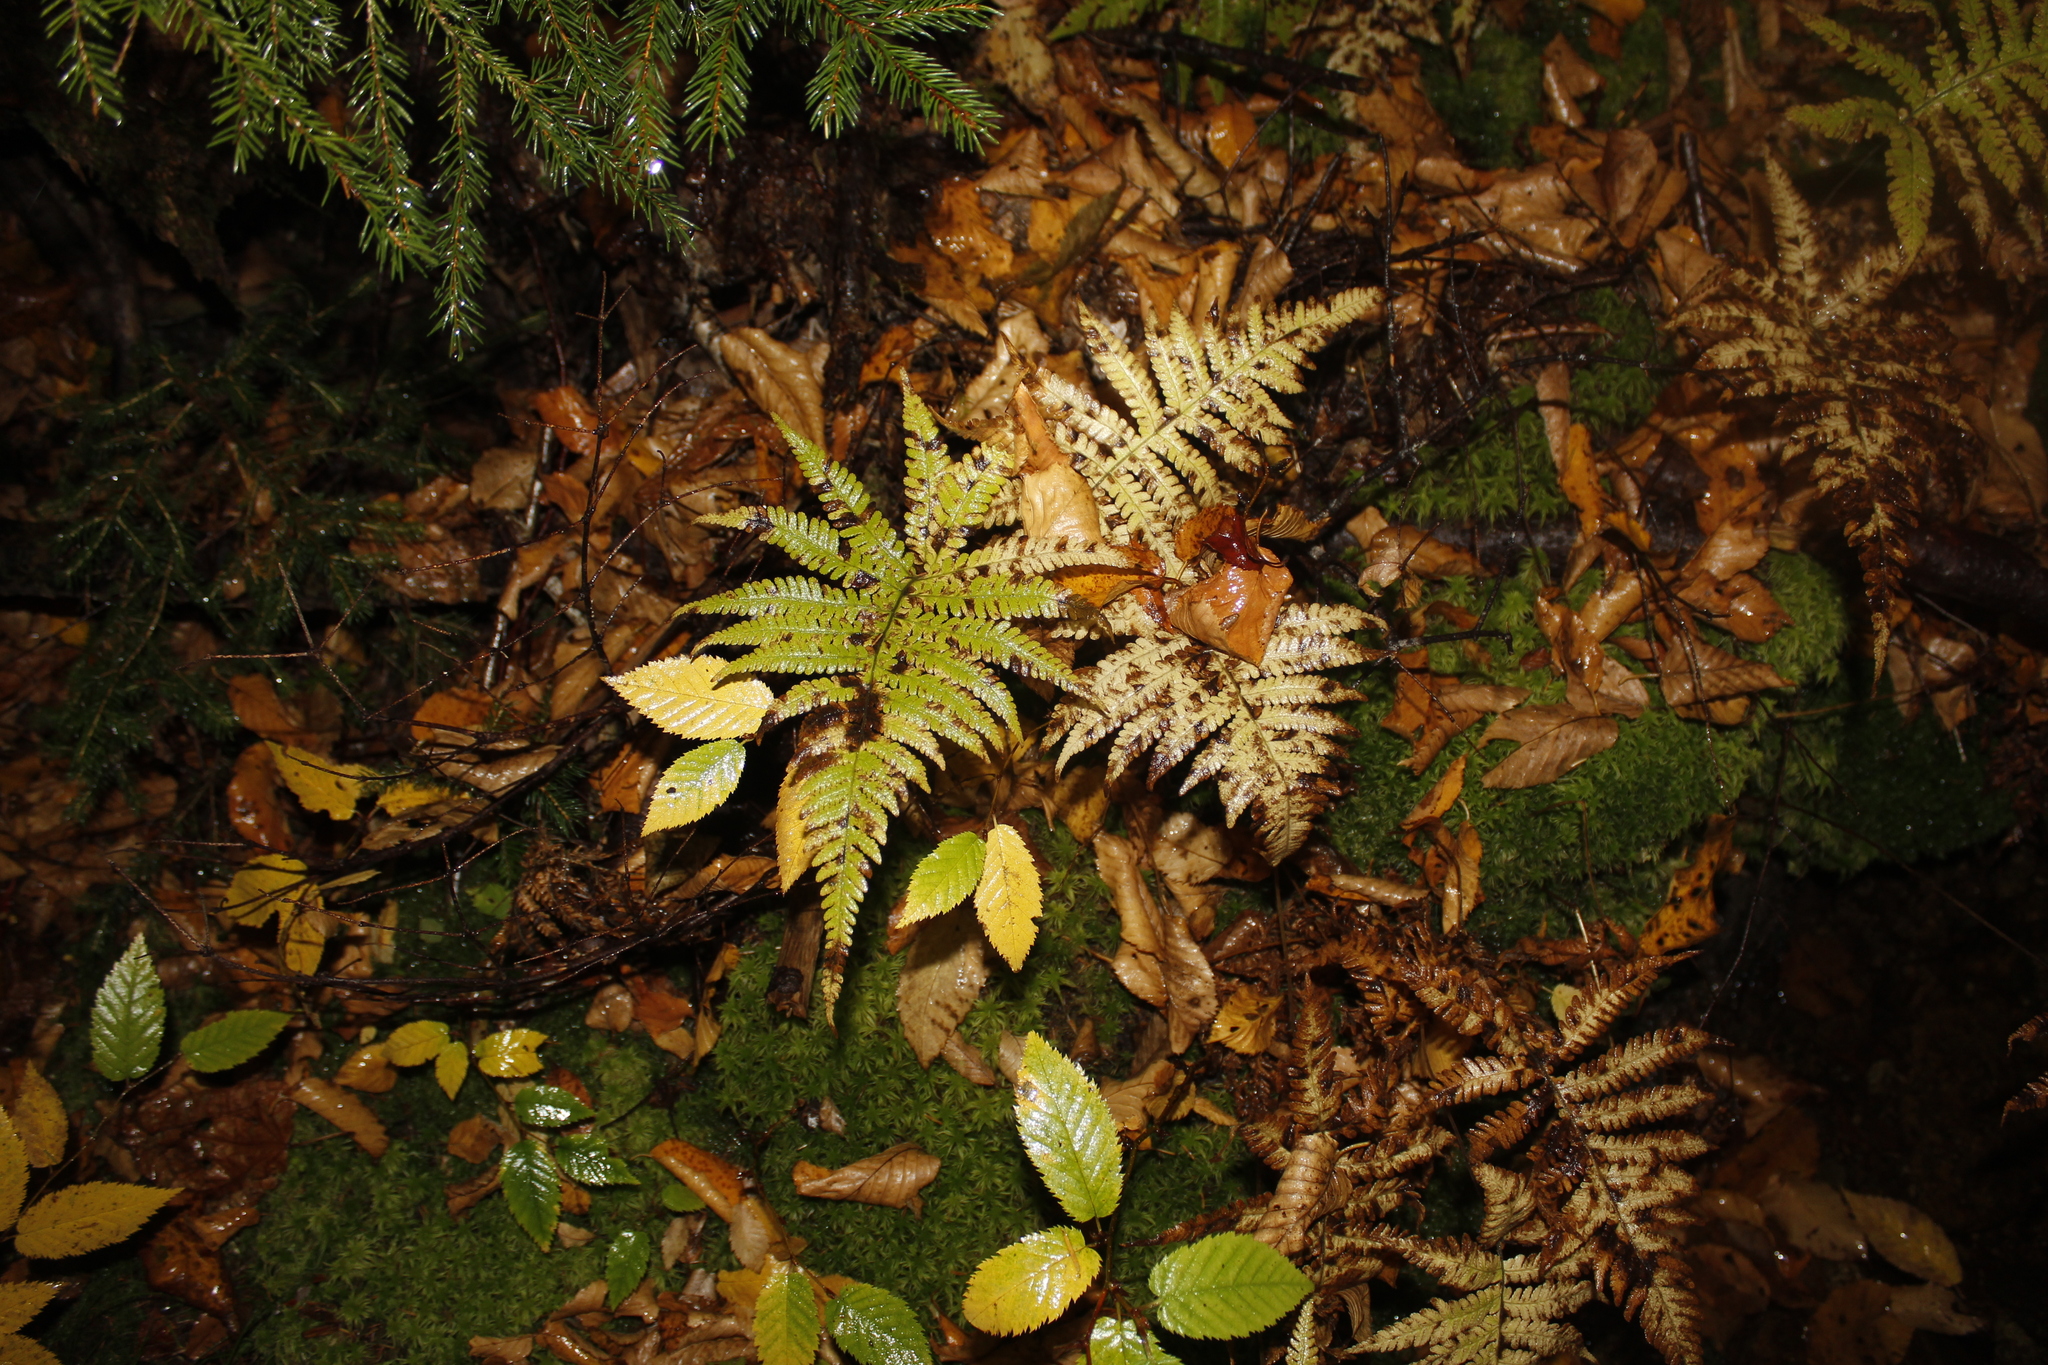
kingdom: Plantae
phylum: Tracheophyta
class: Polypodiopsida
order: Polypodiales
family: Thelypteridaceae
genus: Phegopteris
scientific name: Phegopteris connectilis
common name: Beech fern
